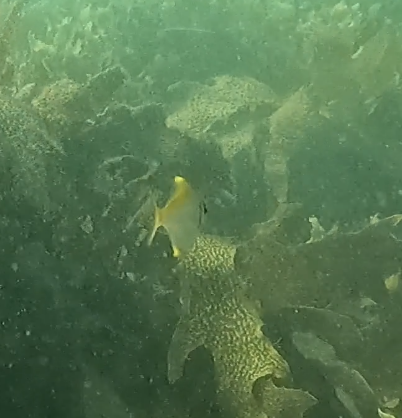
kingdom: Animalia
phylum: Chordata
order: Perciformes
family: Monodactylidae
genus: Schuettea
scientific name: Schuettea scalaripinnis
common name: Eastern pomfred
